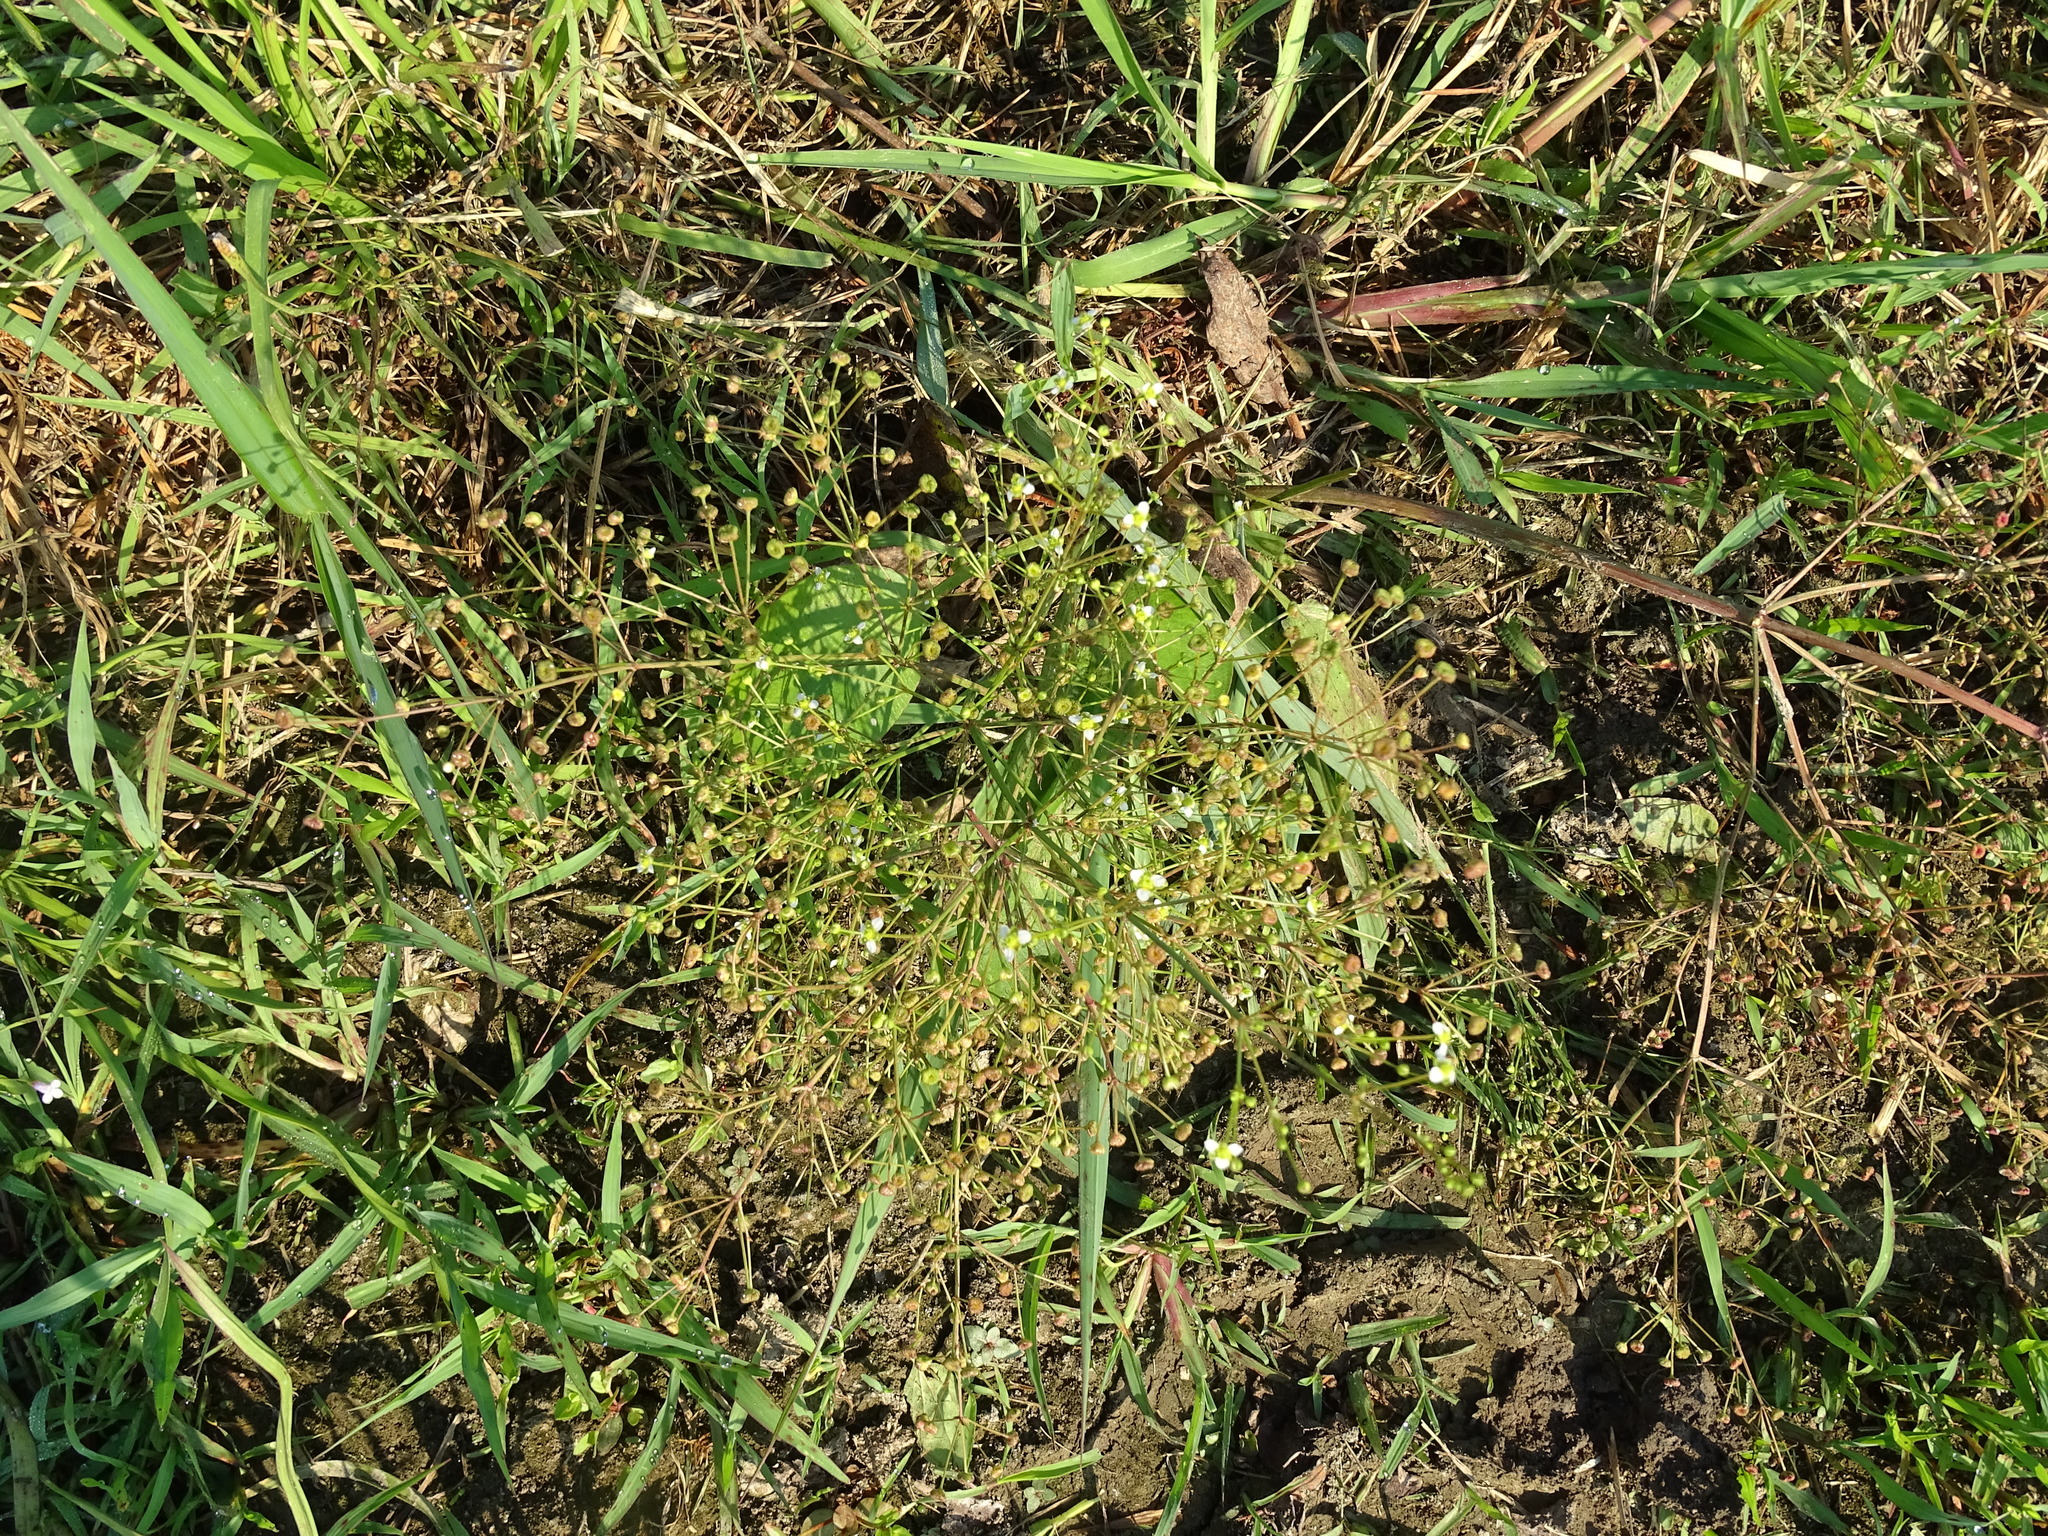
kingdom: Plantae
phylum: Tracheophyta
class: Liliopsida
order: Alismatales
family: Alismataceae
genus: Alisma
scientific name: Alisma subcordatum
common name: Southern water-plantain
